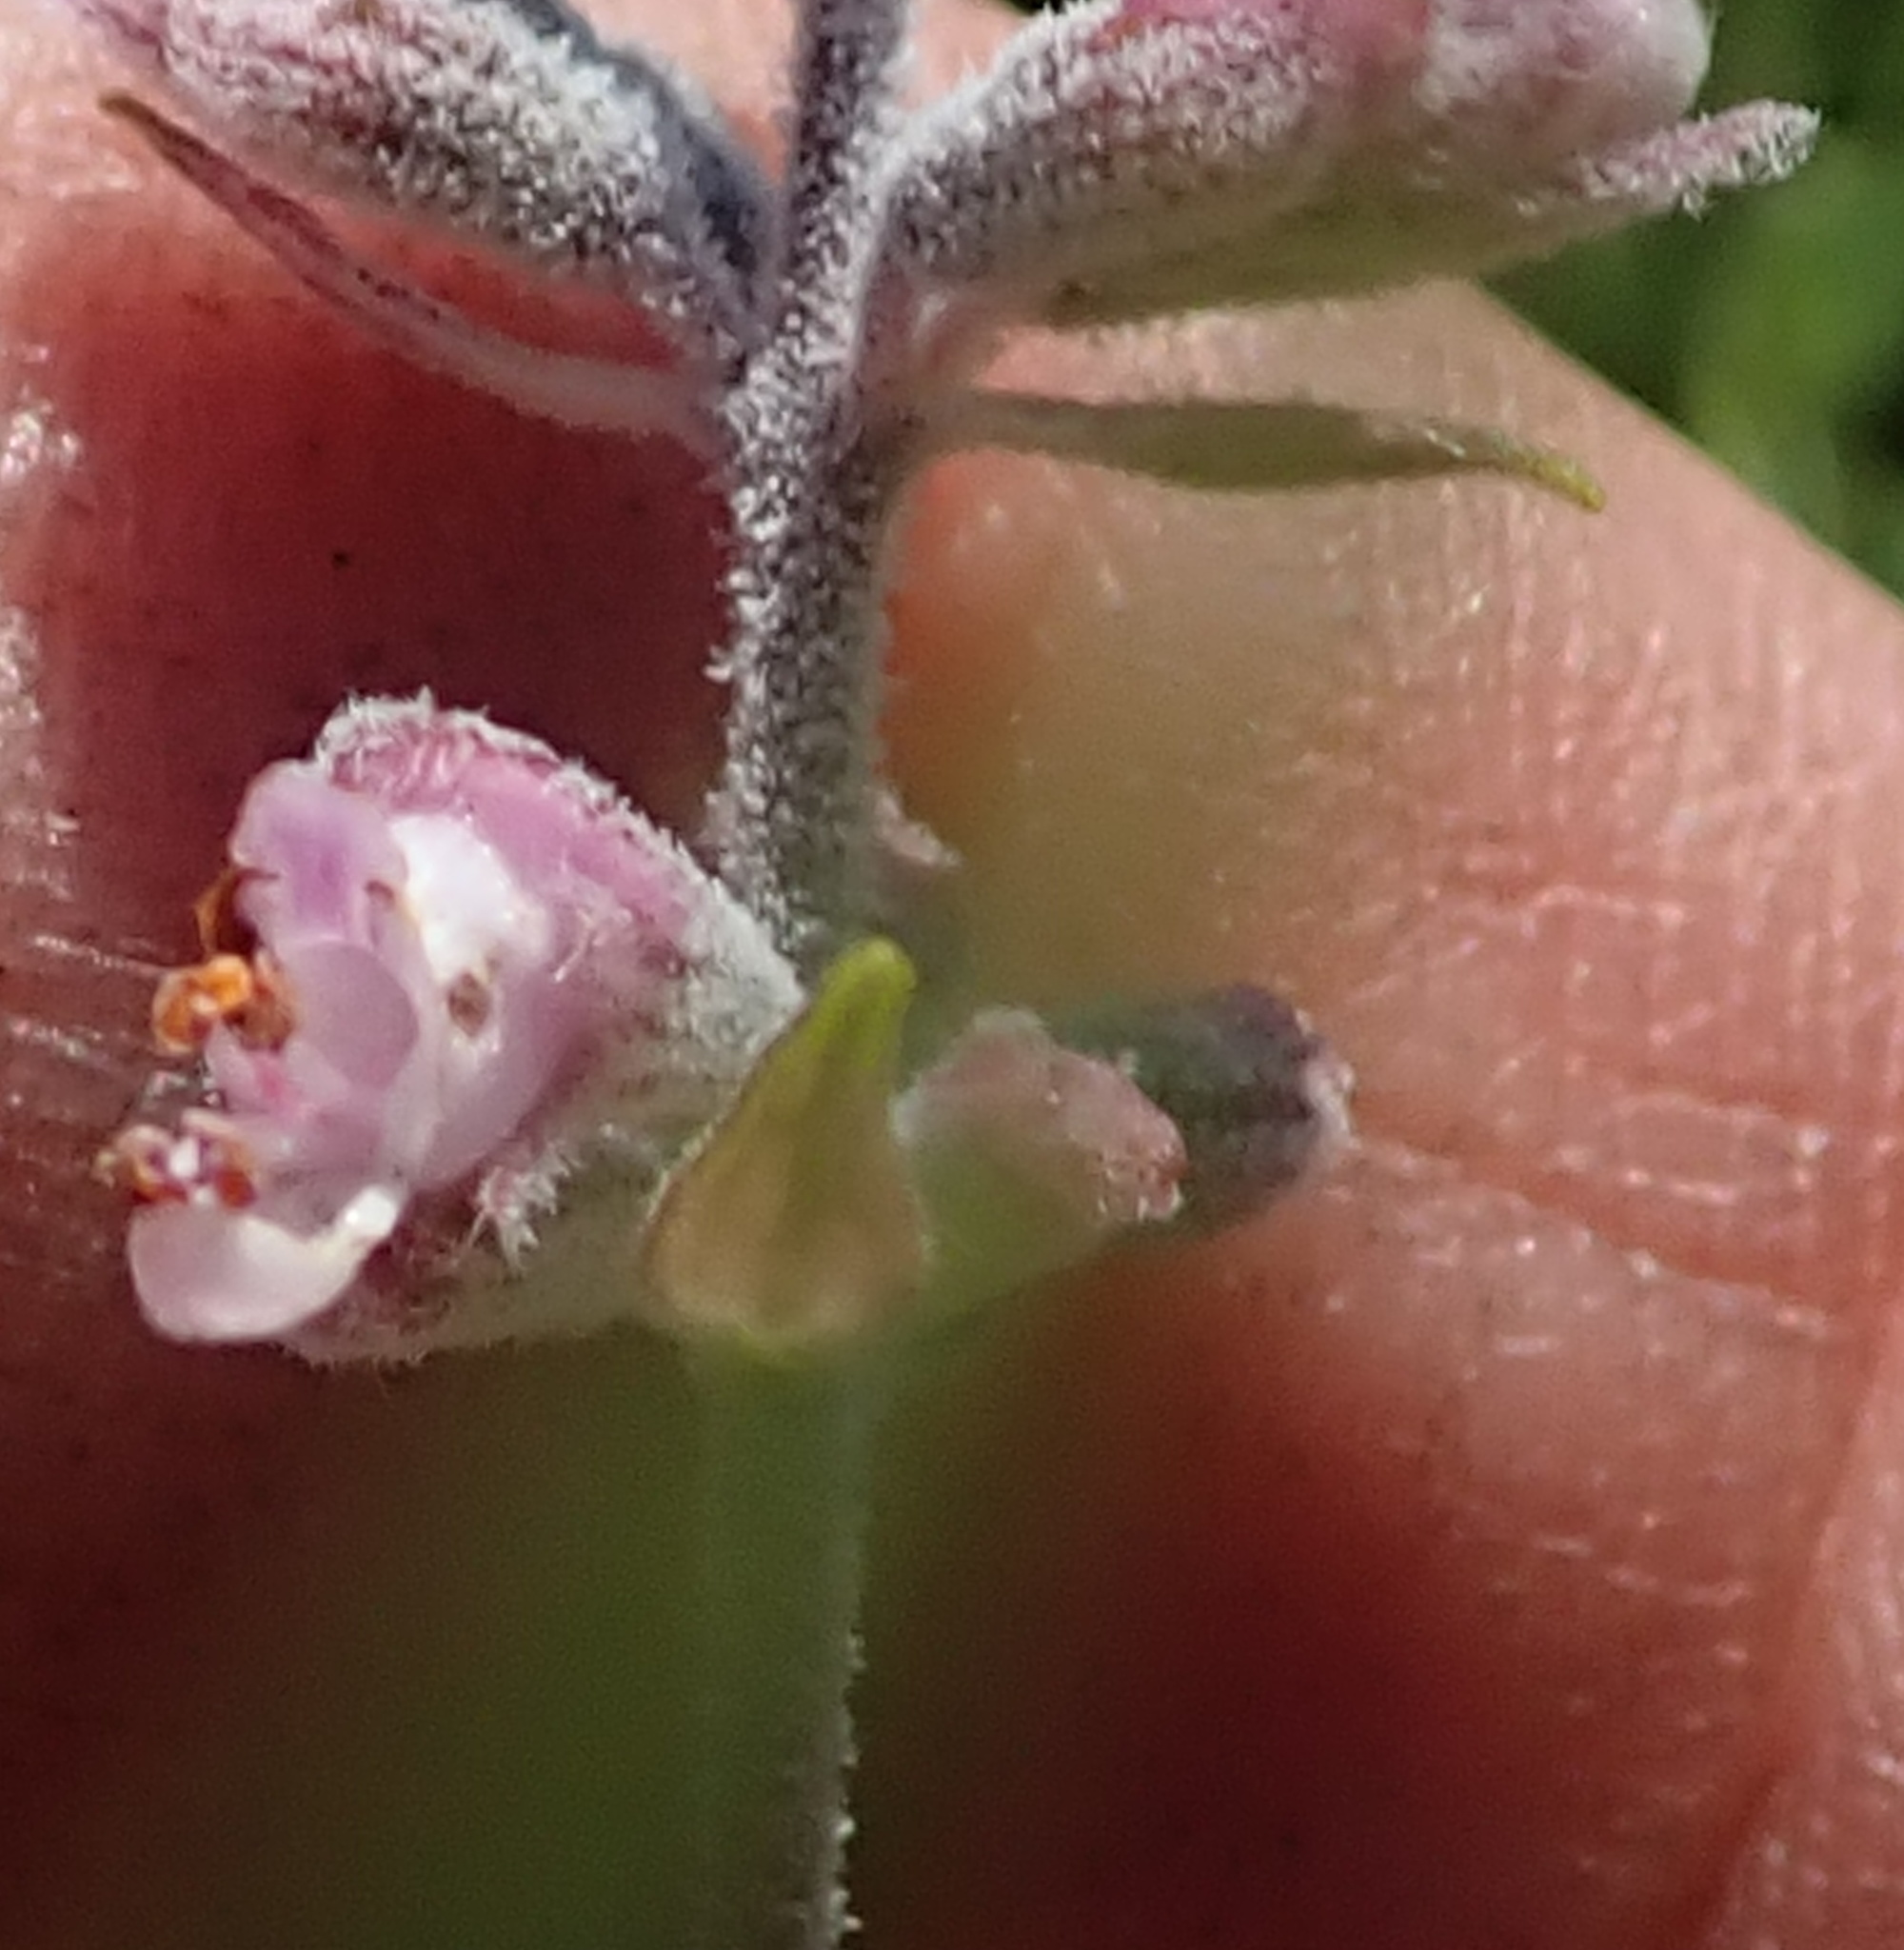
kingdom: Plantae
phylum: Tracheophyta
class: Magnoliopsida
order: Lamiales
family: Lamiaceae
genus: Syncolostemon
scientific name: Syncolostemon teucriifolius
